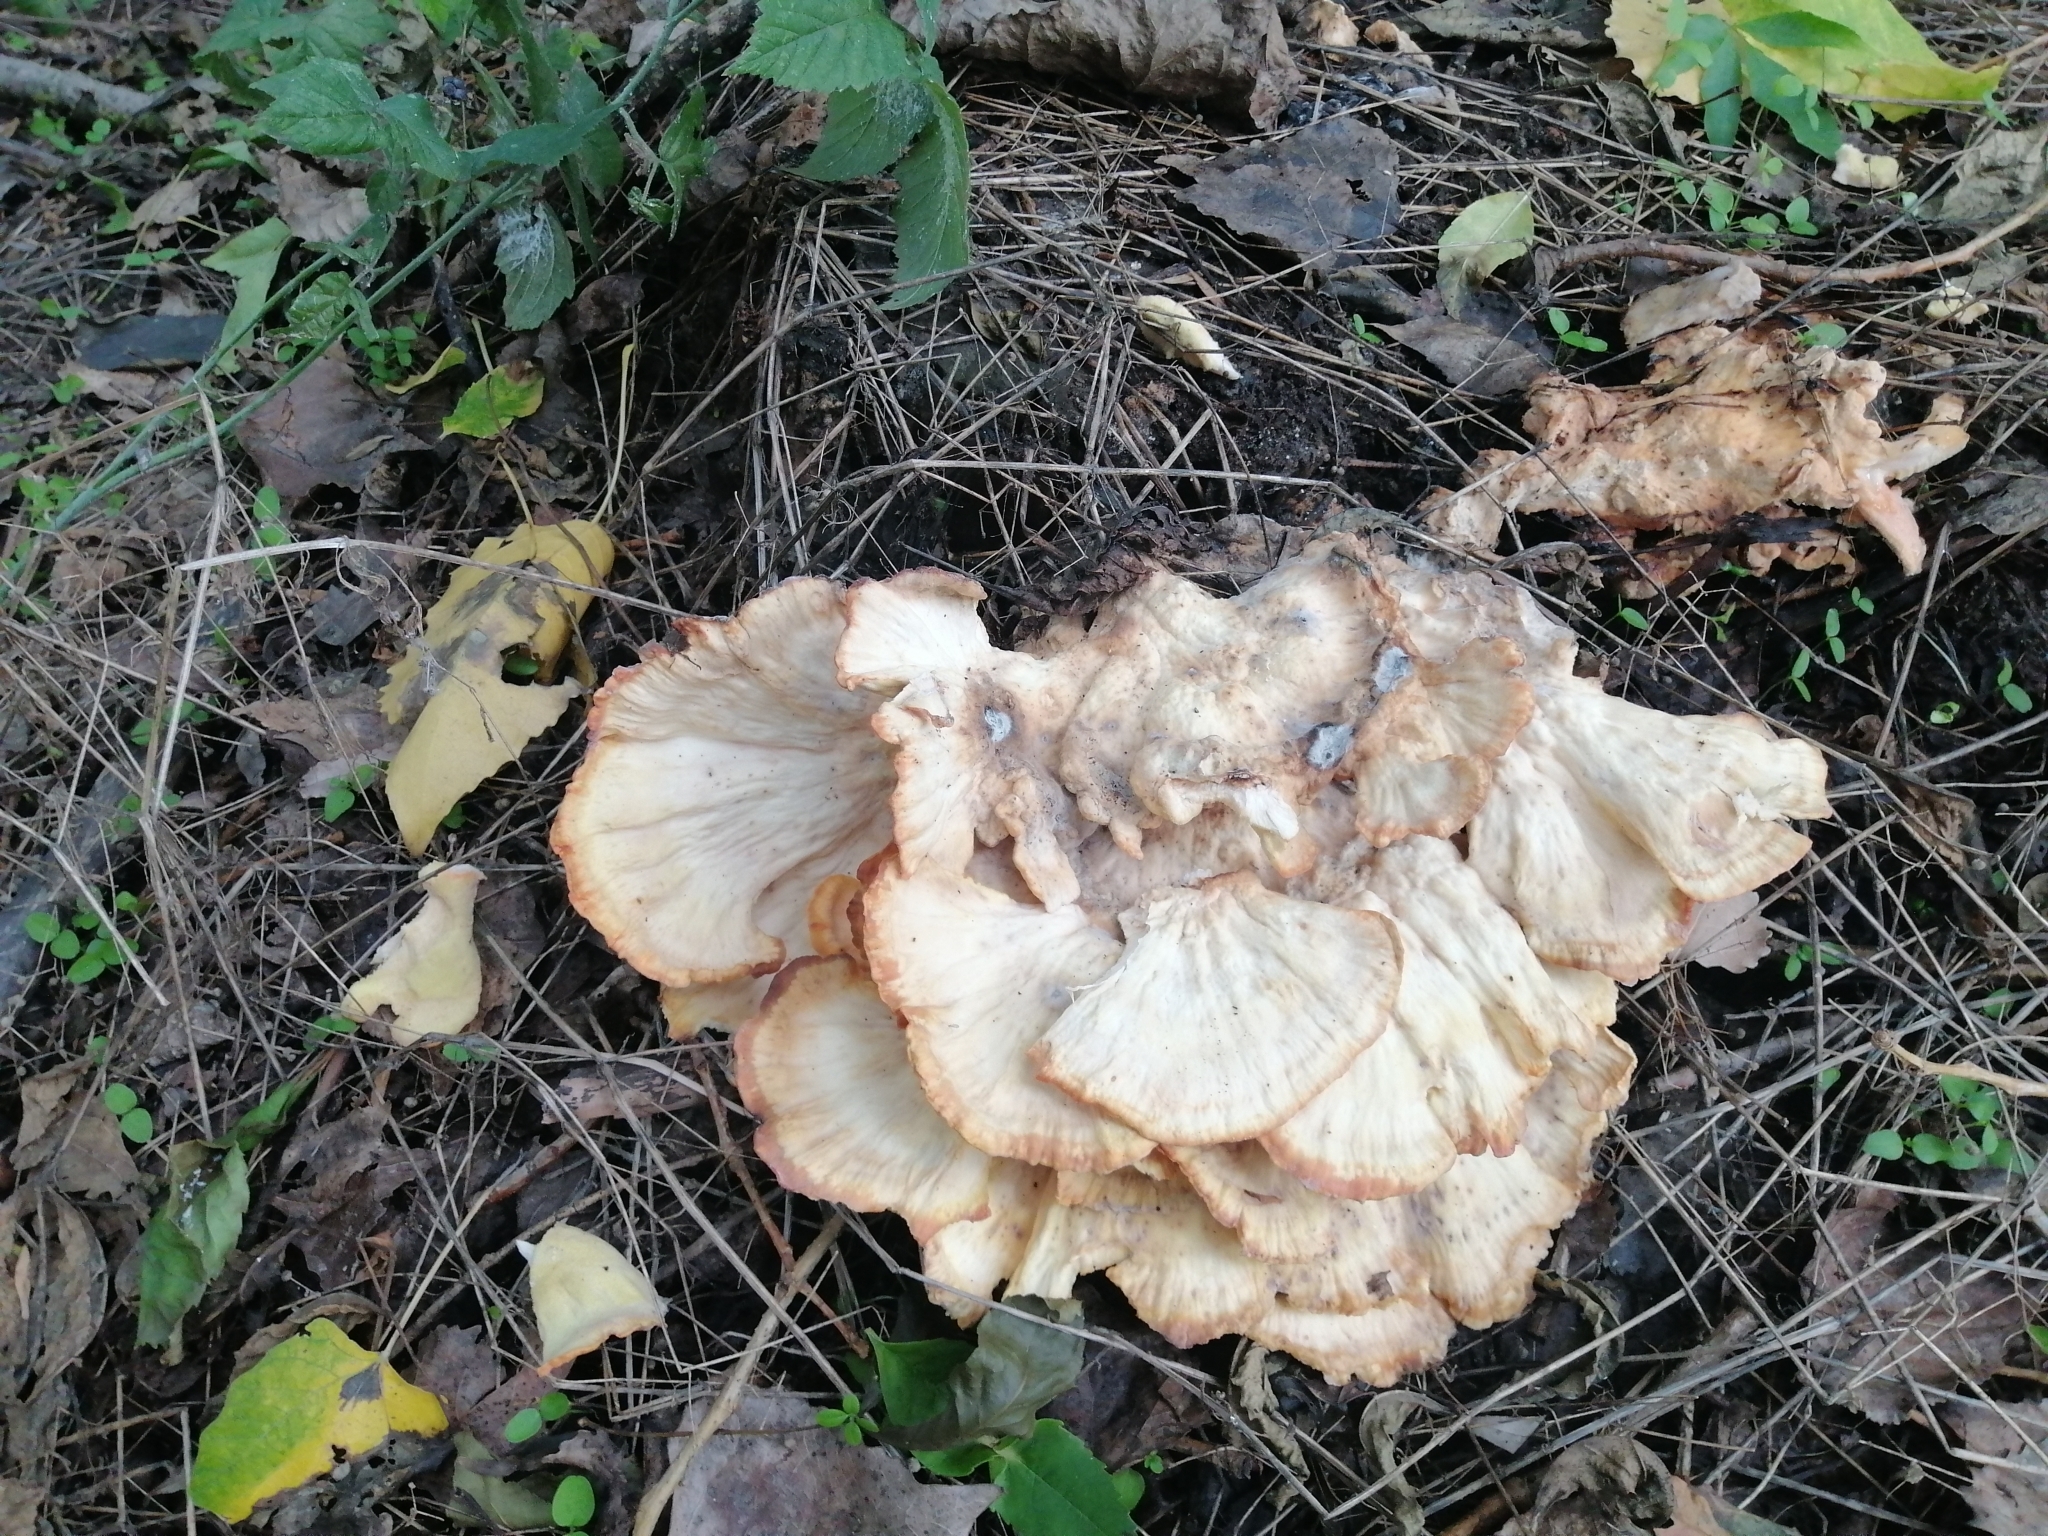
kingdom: Fungi
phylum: Basidiomycota
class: Agaricomycetes
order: Polyporales
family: Laetiporaceae
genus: Laetiporus
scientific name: Laetiporus sulphureus
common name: Chicken of the woods
